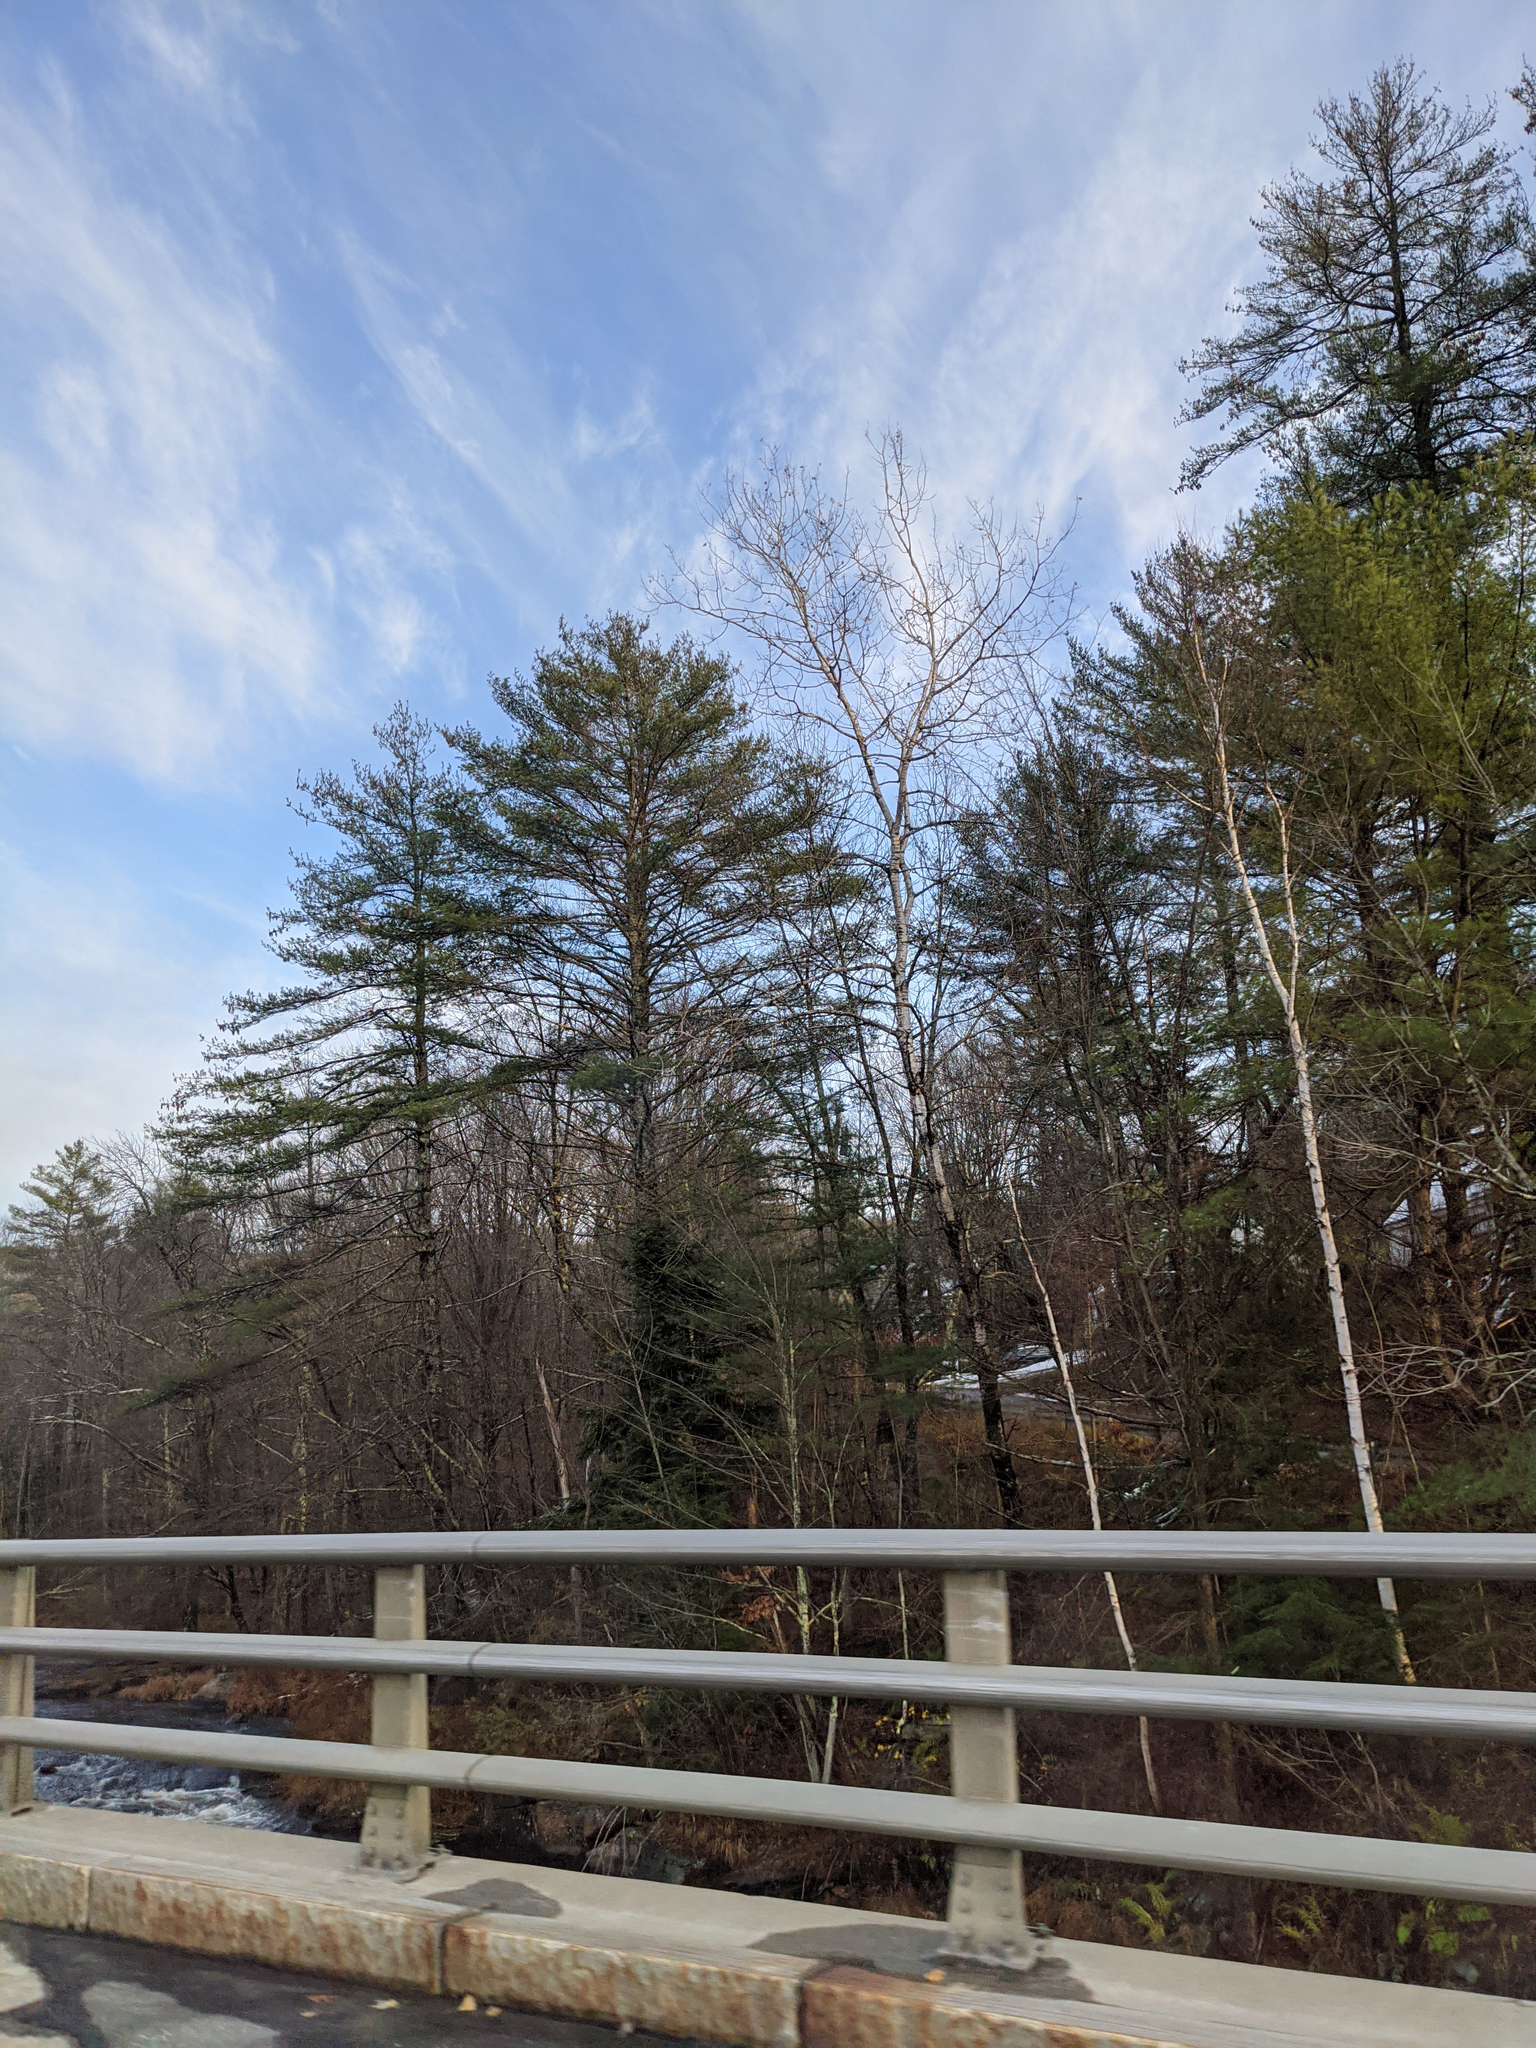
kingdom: Plantae
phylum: Tracheophyta
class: Pinopsida
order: Pinales
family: Pinaceae
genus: Pinus
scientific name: Pinus strobus
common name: Weymouth pine
